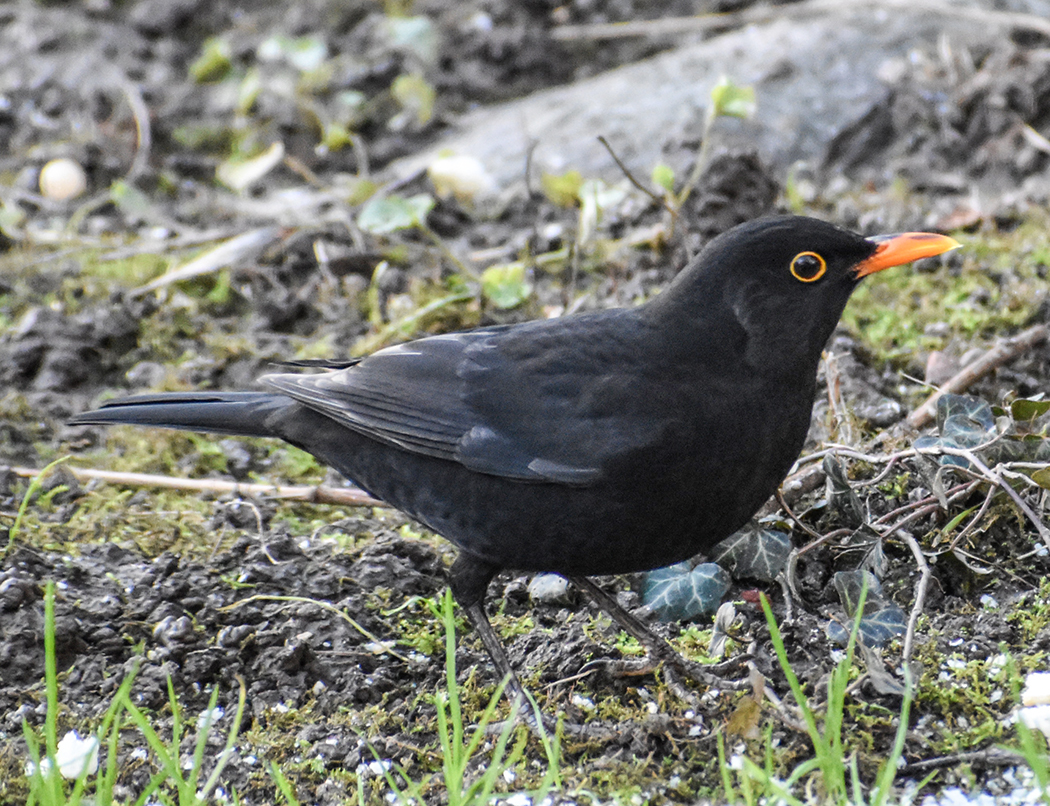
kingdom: Animalia
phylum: Chordata
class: Aves
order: Passeriformes
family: Turdidae
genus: Turdus
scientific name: Turdus merula
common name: Common blackbird
